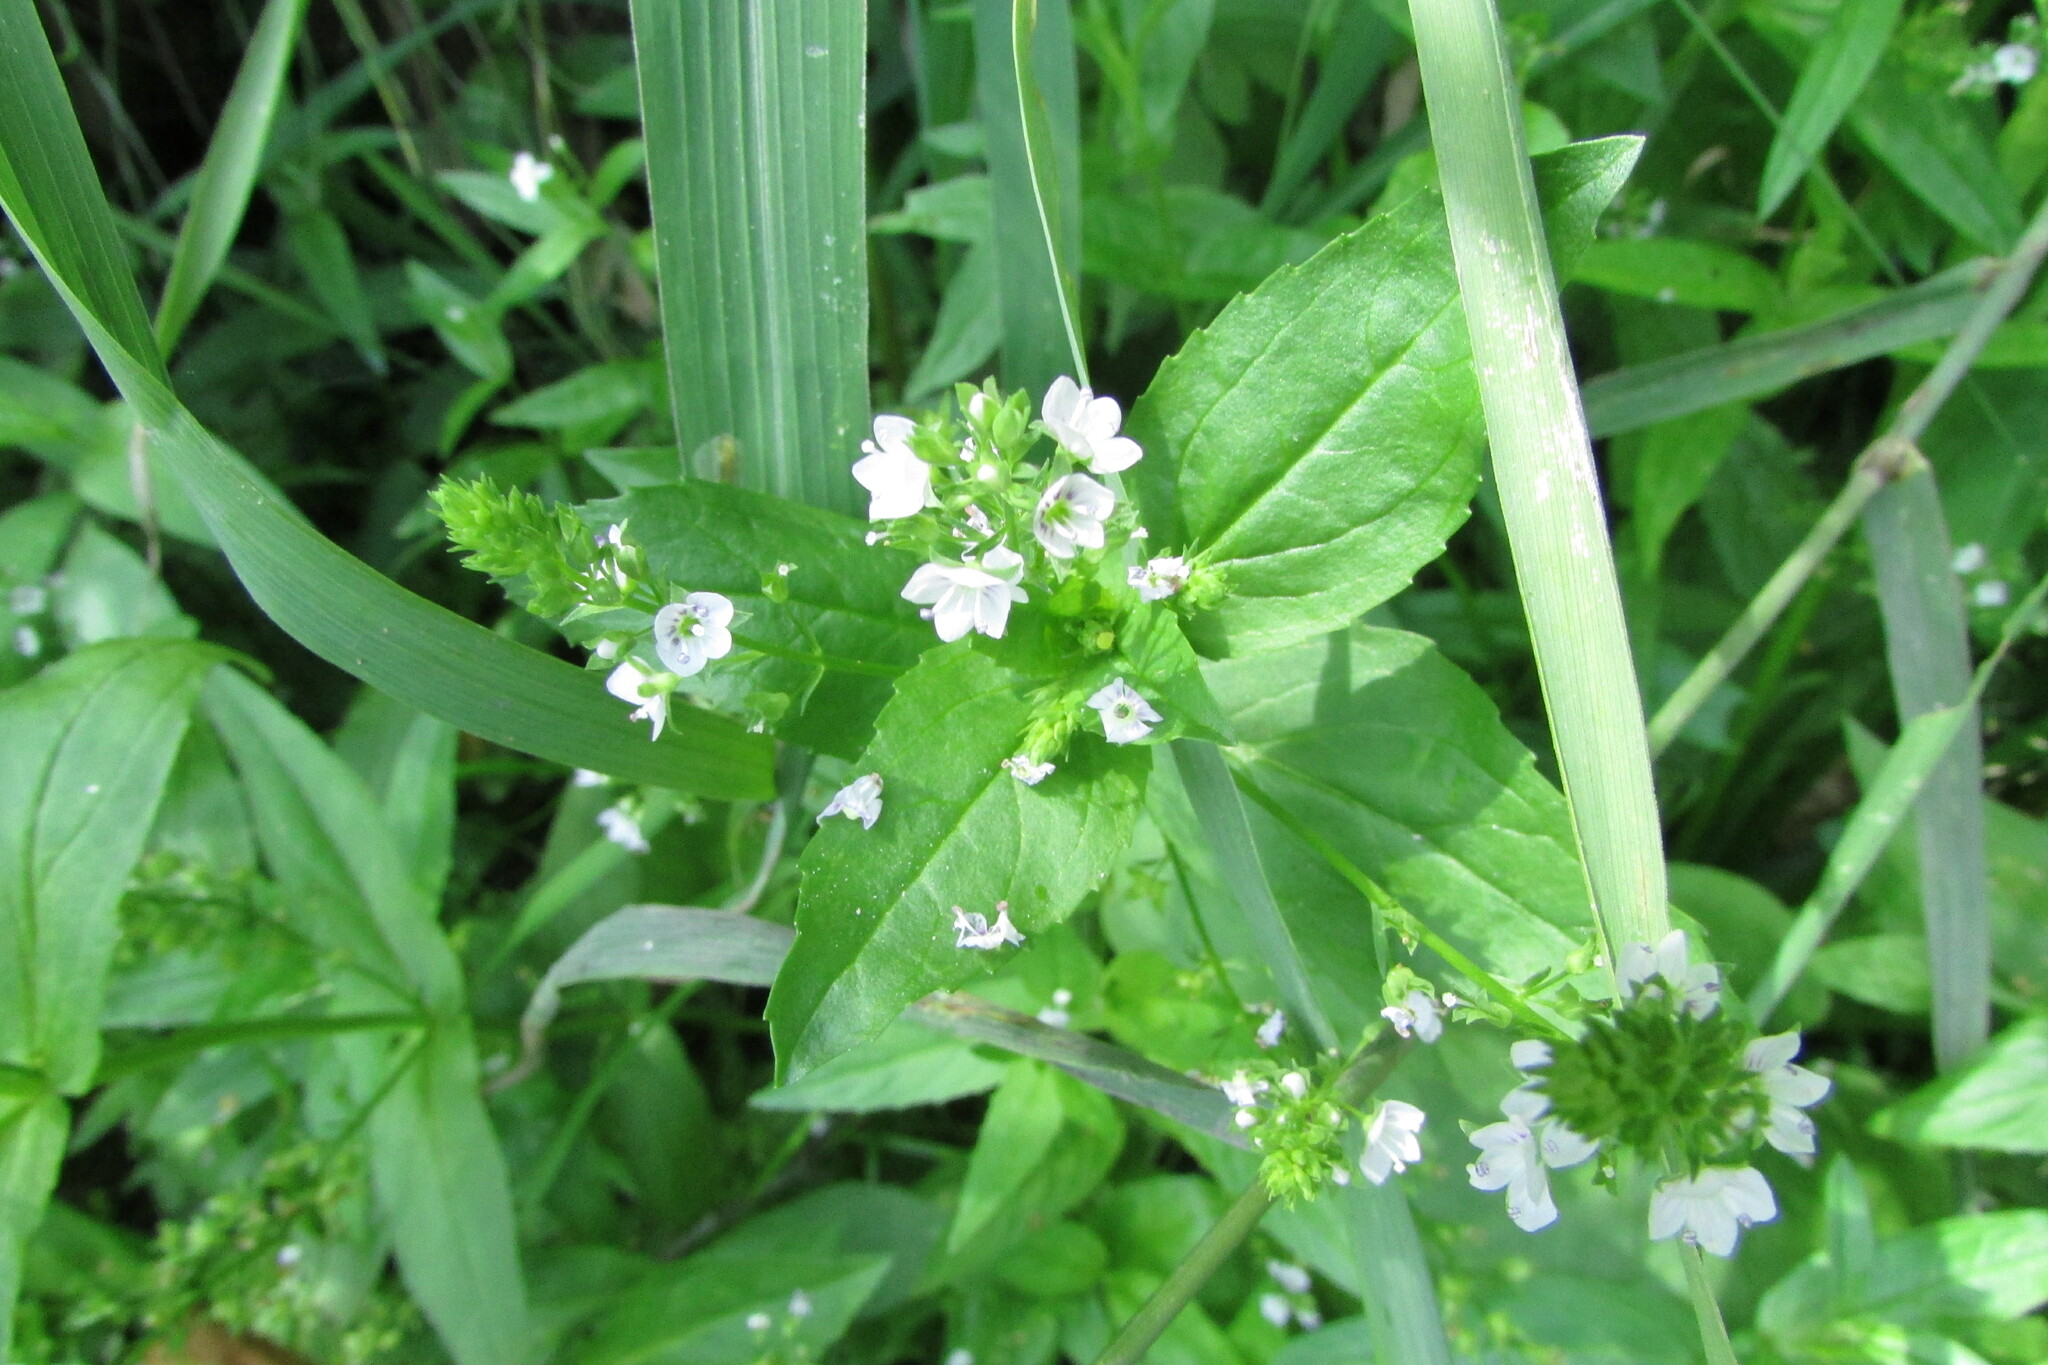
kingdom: Plantae
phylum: Tracheophyta
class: Magnoliopsida
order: Lamiales
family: Plantaginaceae
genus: Veronica
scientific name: Veronica anagallis-aquatica
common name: Water speedwell
